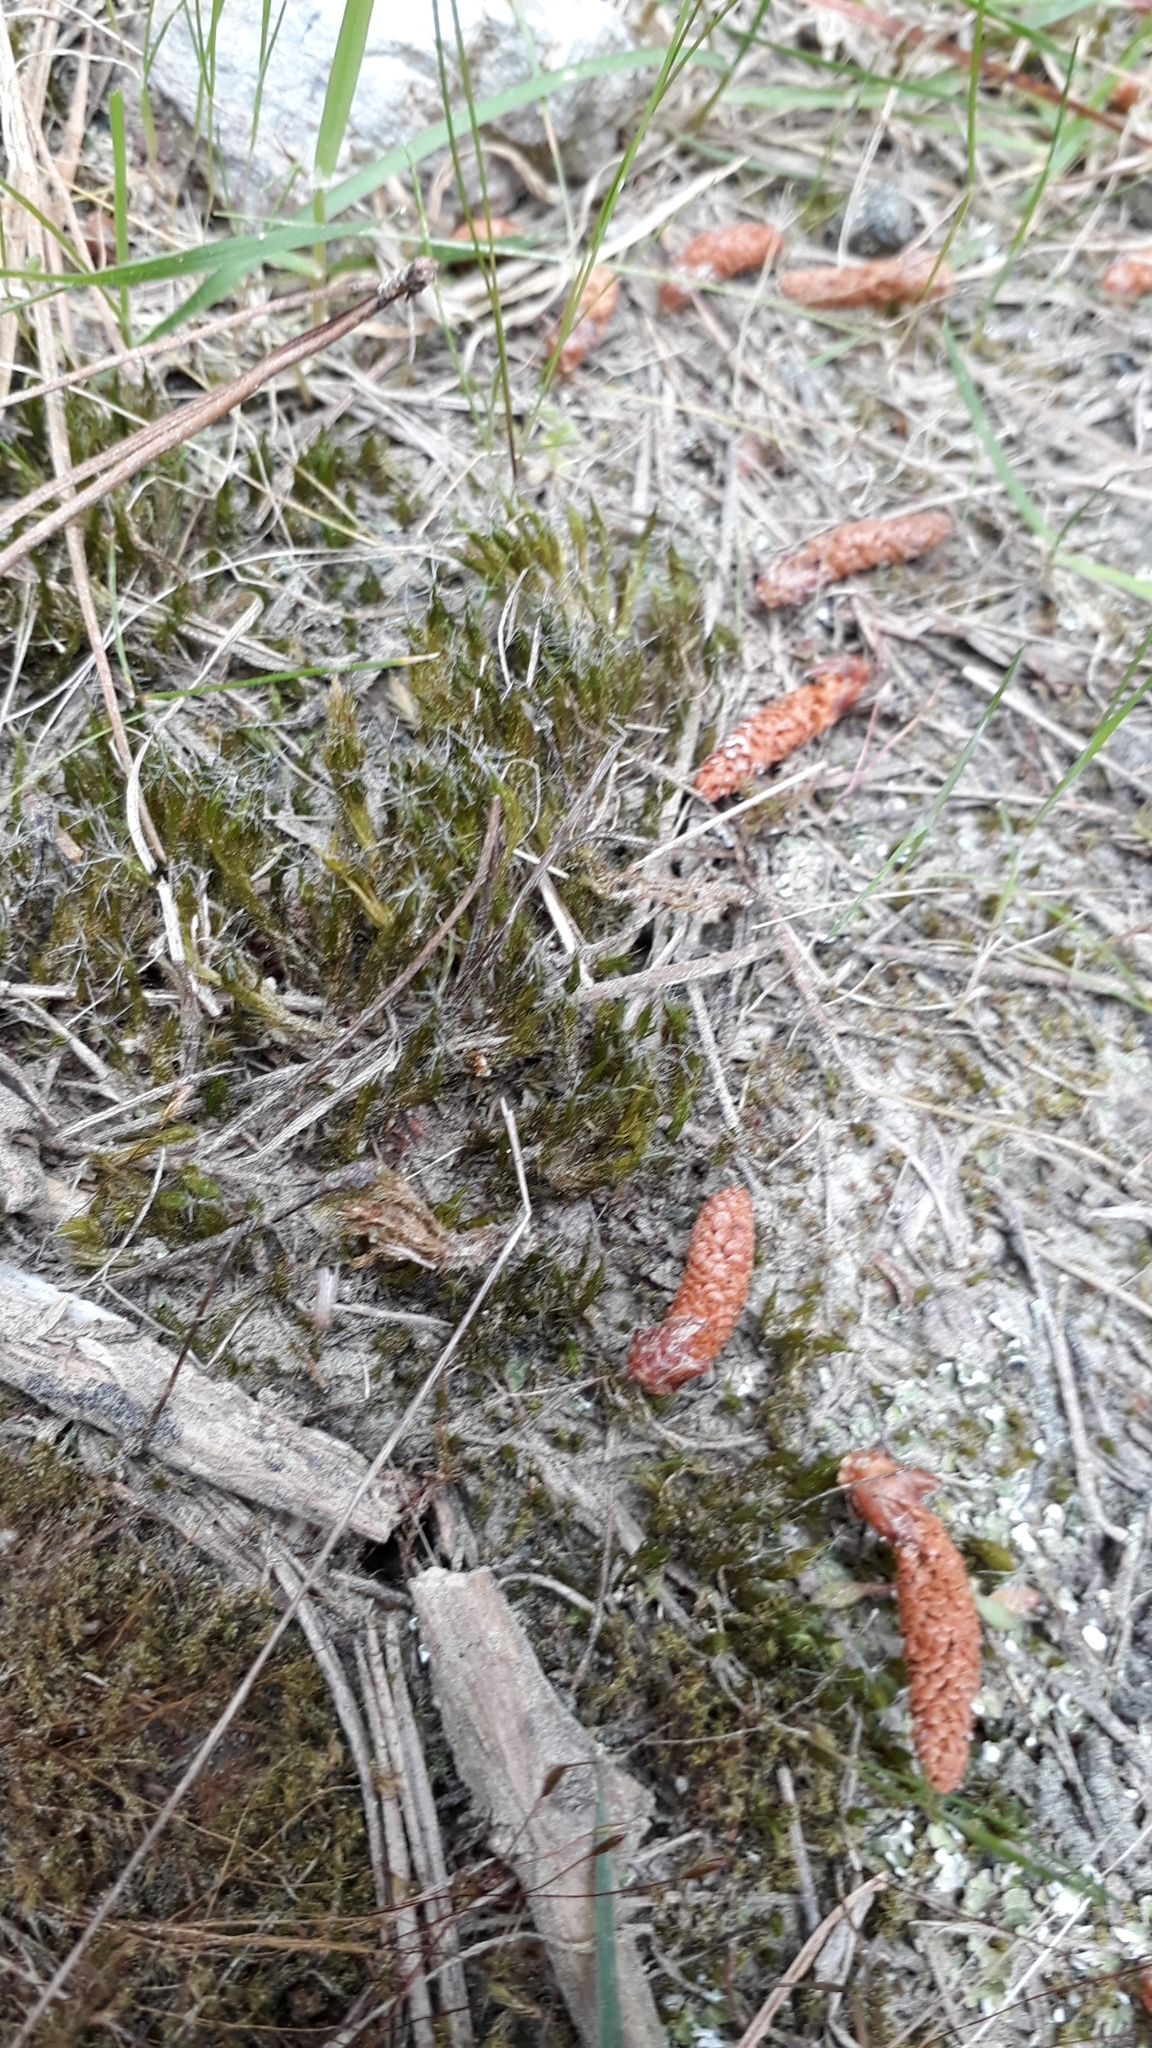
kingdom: Plantae
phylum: Bryophyta
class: Bryopsida
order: Dicranales
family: Leucobryaceae
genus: Campylopus
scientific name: Campylopus introflexus
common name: Heath star moss
